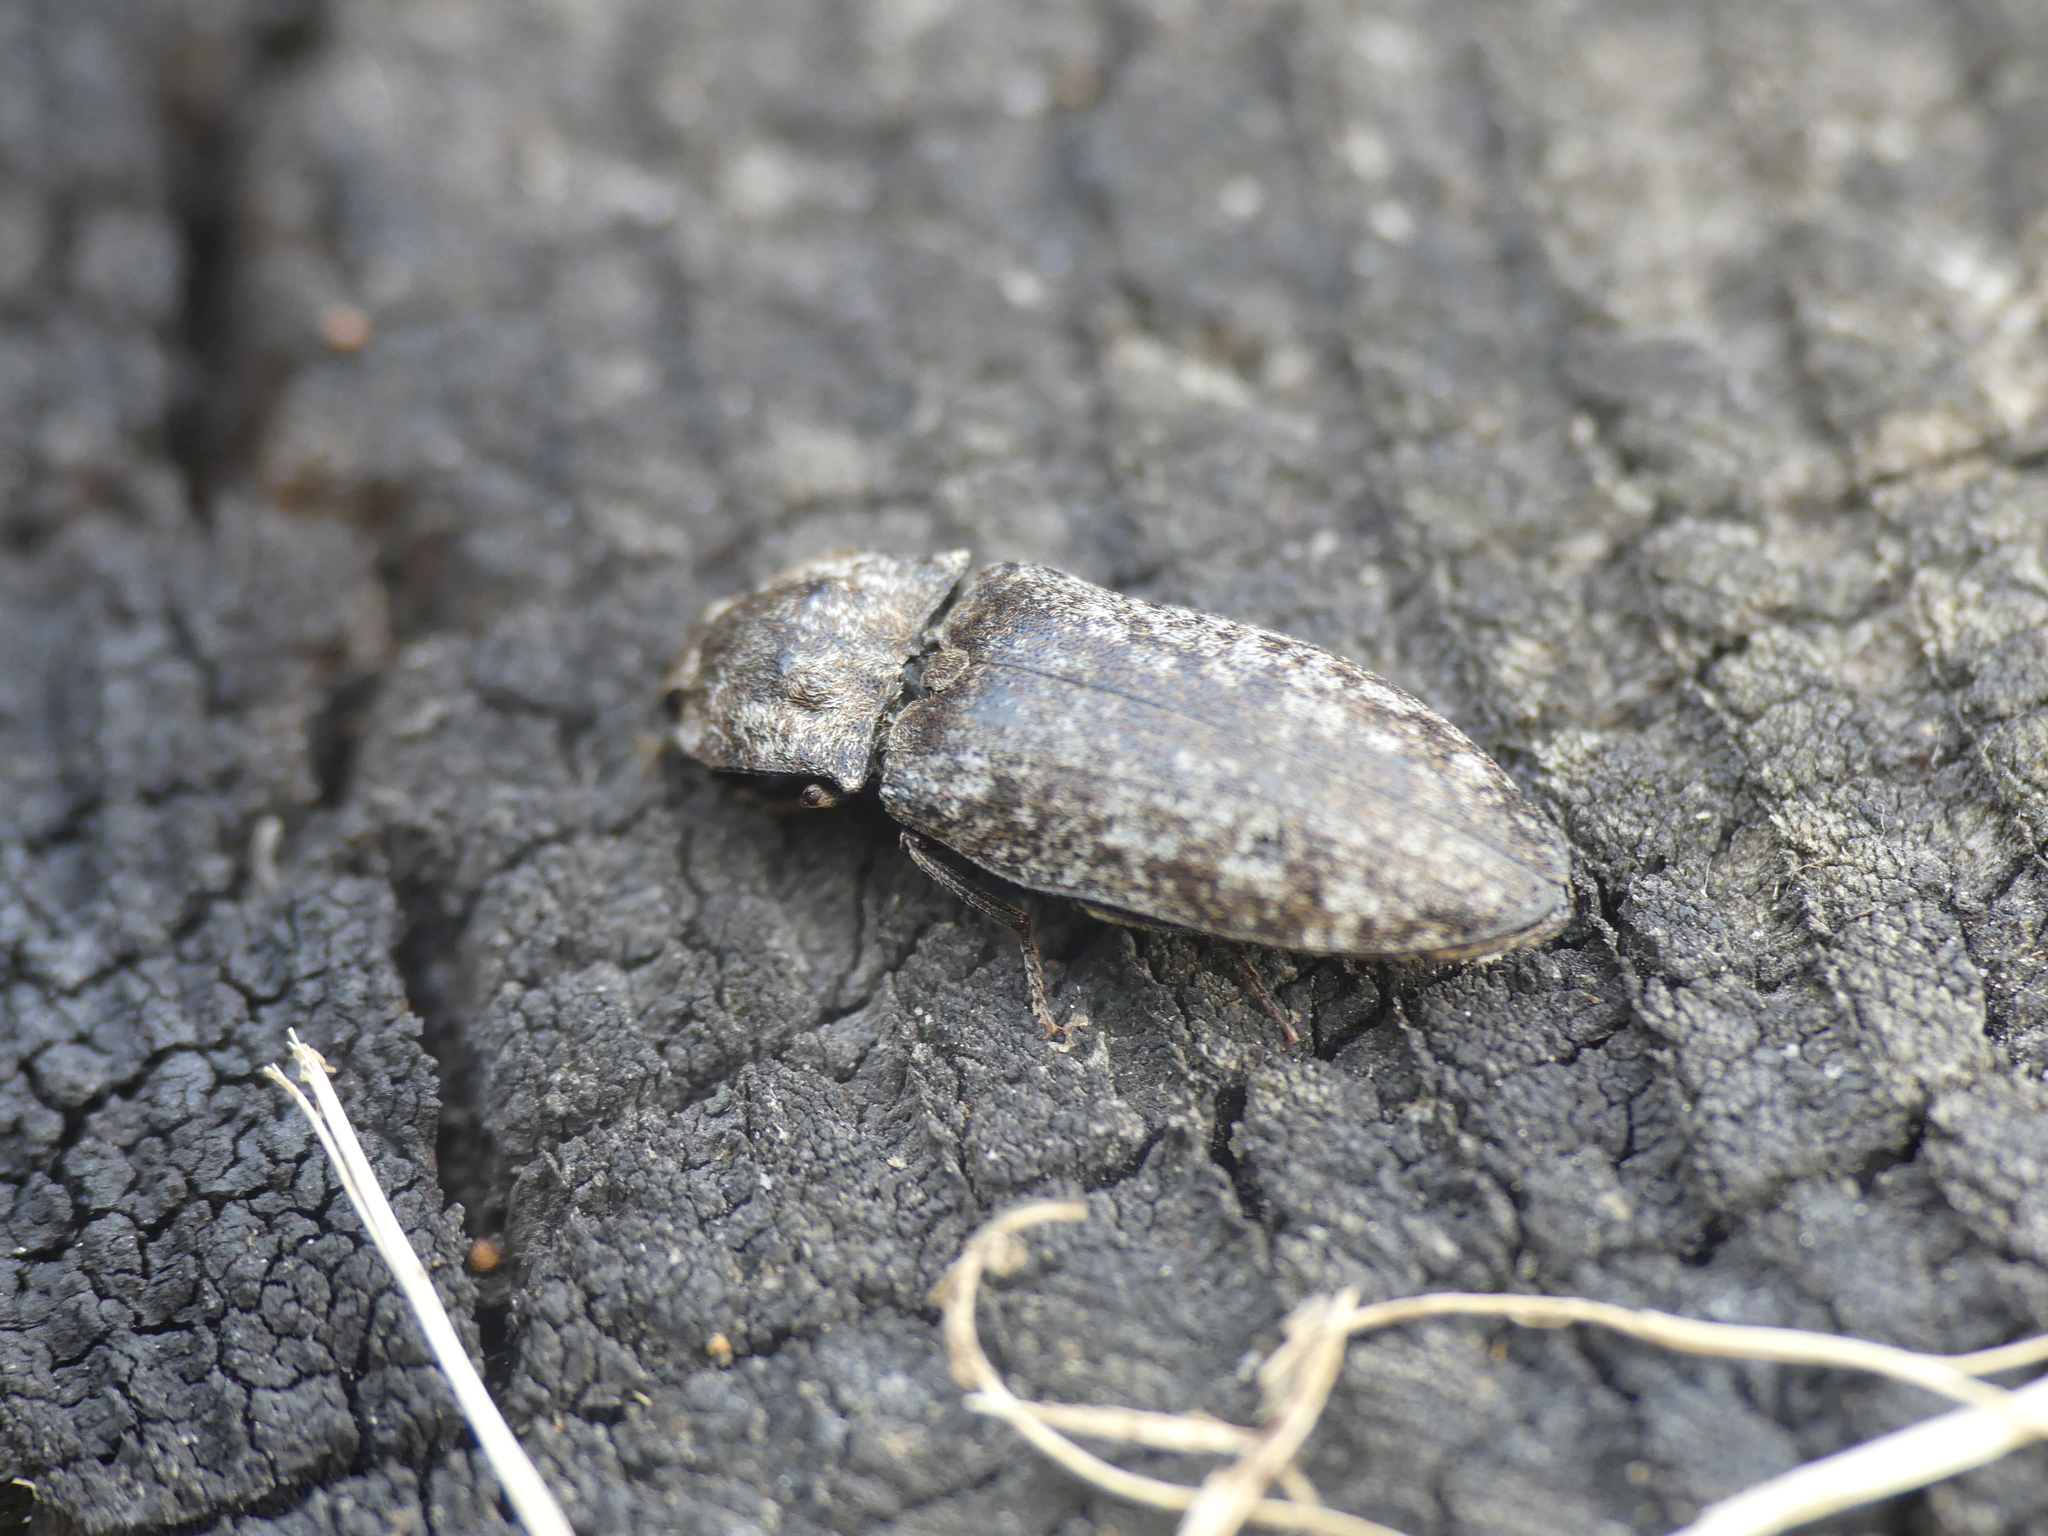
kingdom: Animalia
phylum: Arthropoda
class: Insecta
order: Coleoptera
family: Elateridae
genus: Agrypnus
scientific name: Agrypnus murinus
